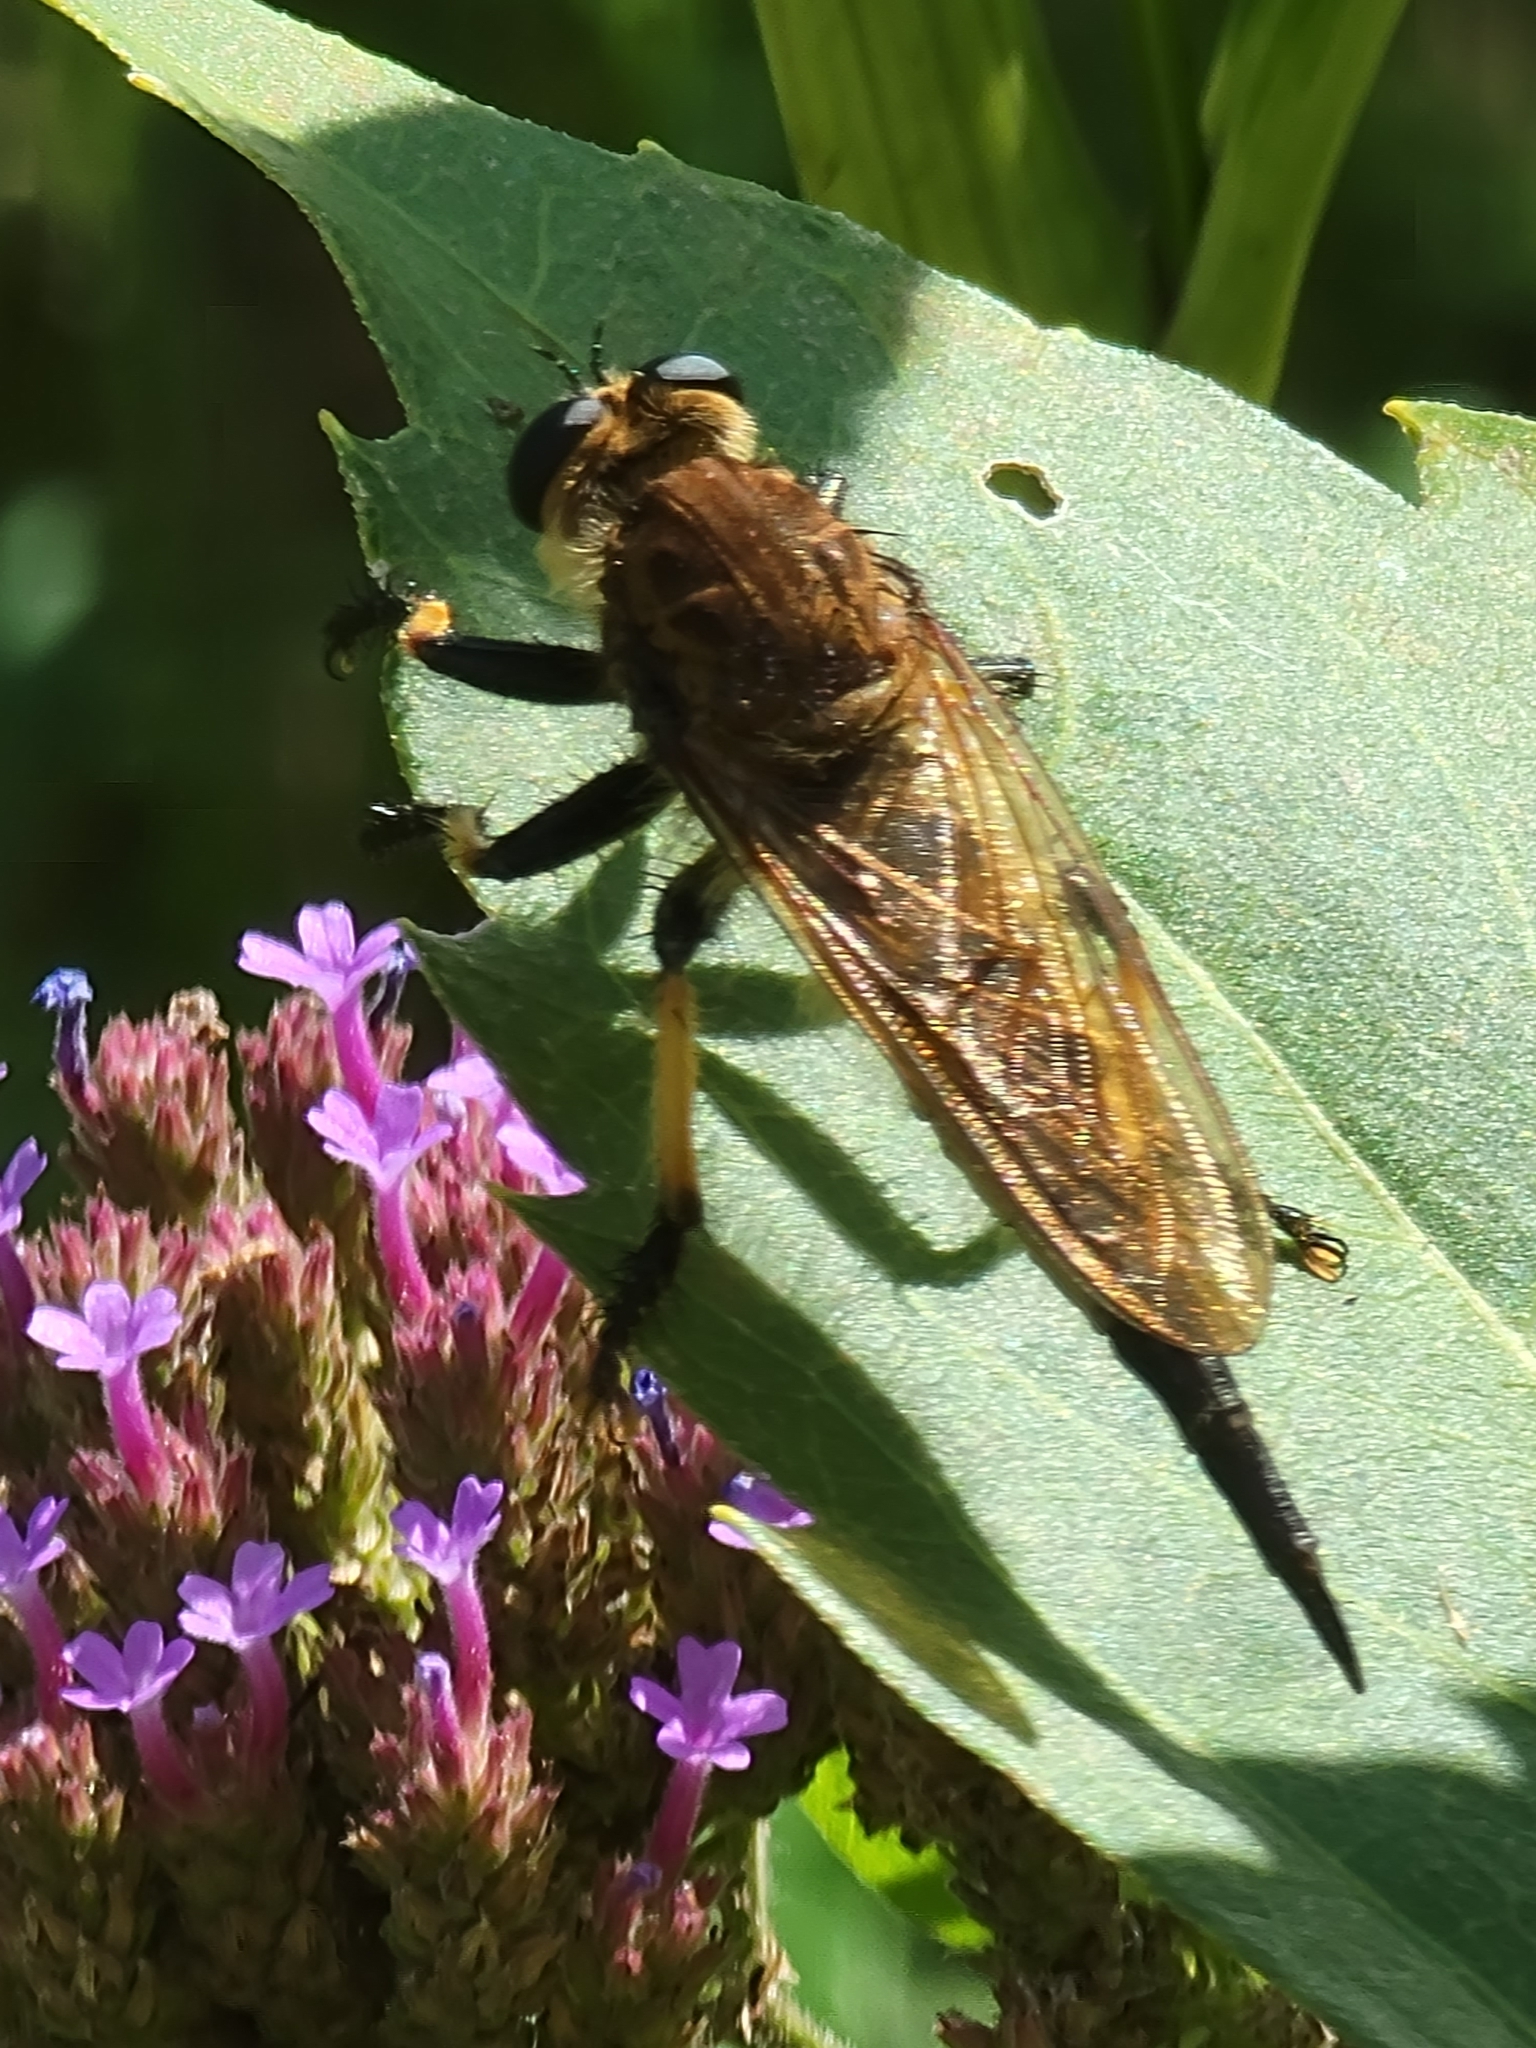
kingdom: Animalia
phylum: Arthropoda
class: Insecta
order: Diptera
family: Asilidae
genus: Promachus
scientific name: Promachus rufipes
